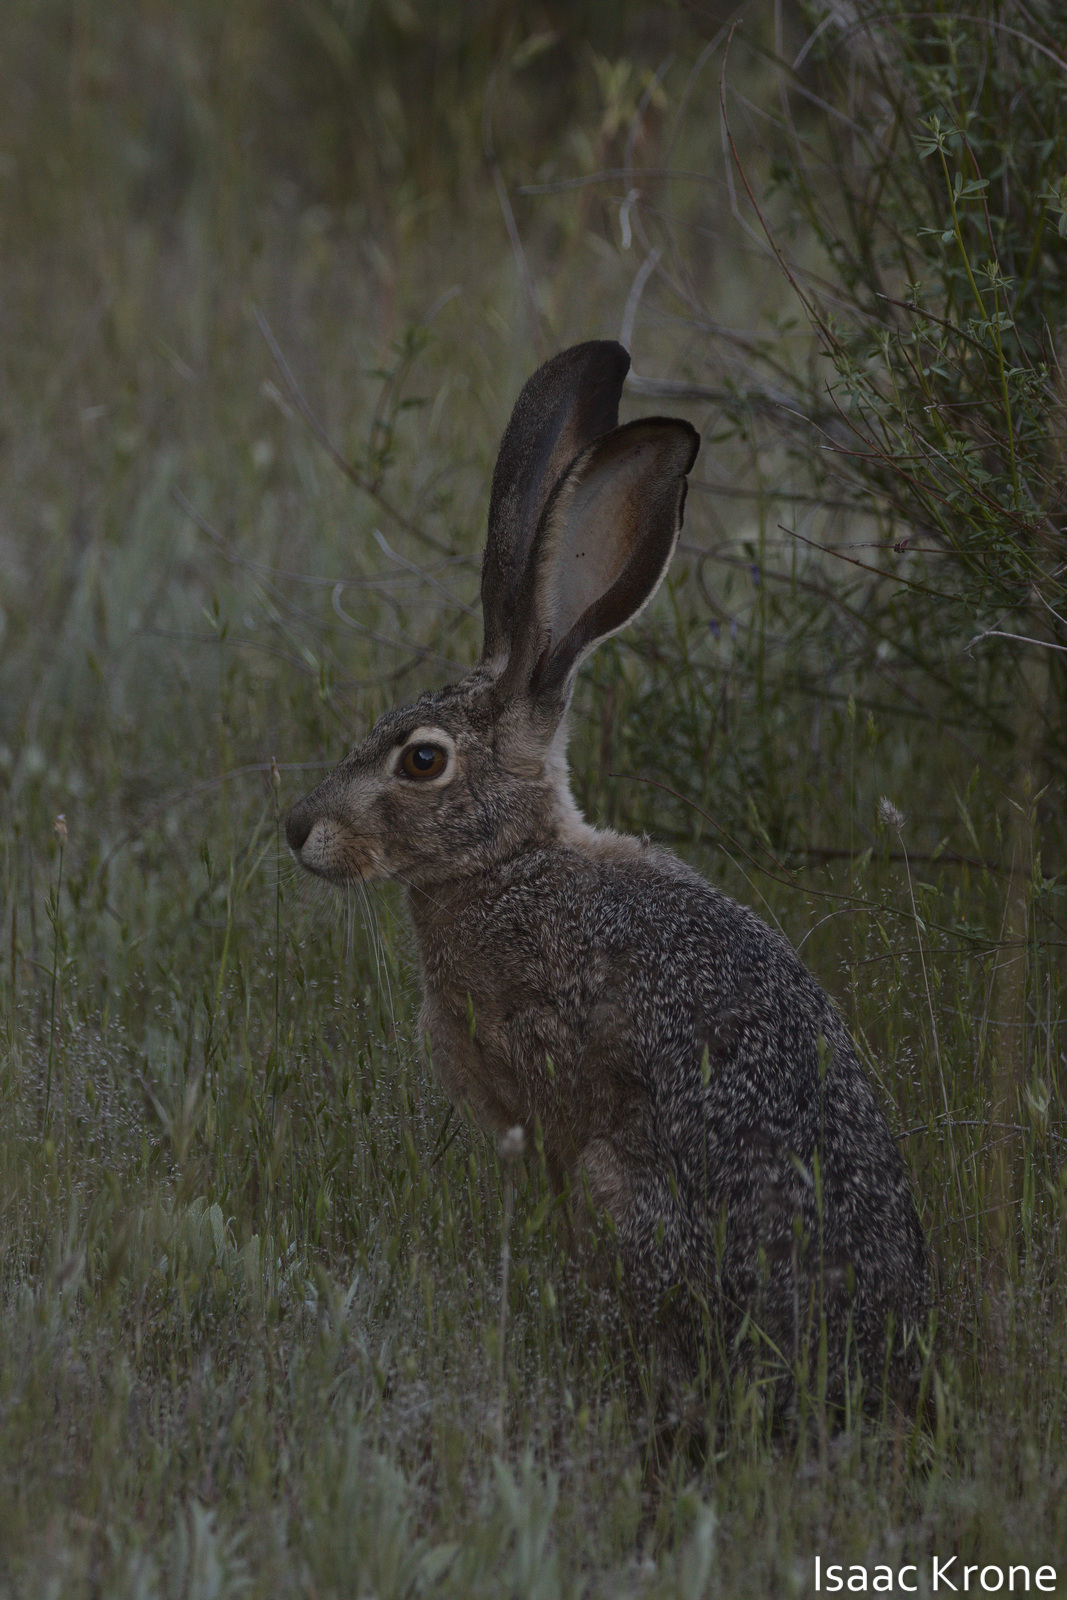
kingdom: Animalia
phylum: Chordata
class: Mammalia
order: Lagomorpha
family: Leporidae
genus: Lepus
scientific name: Lepus californicus
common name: Black-tailed jackrabbit
